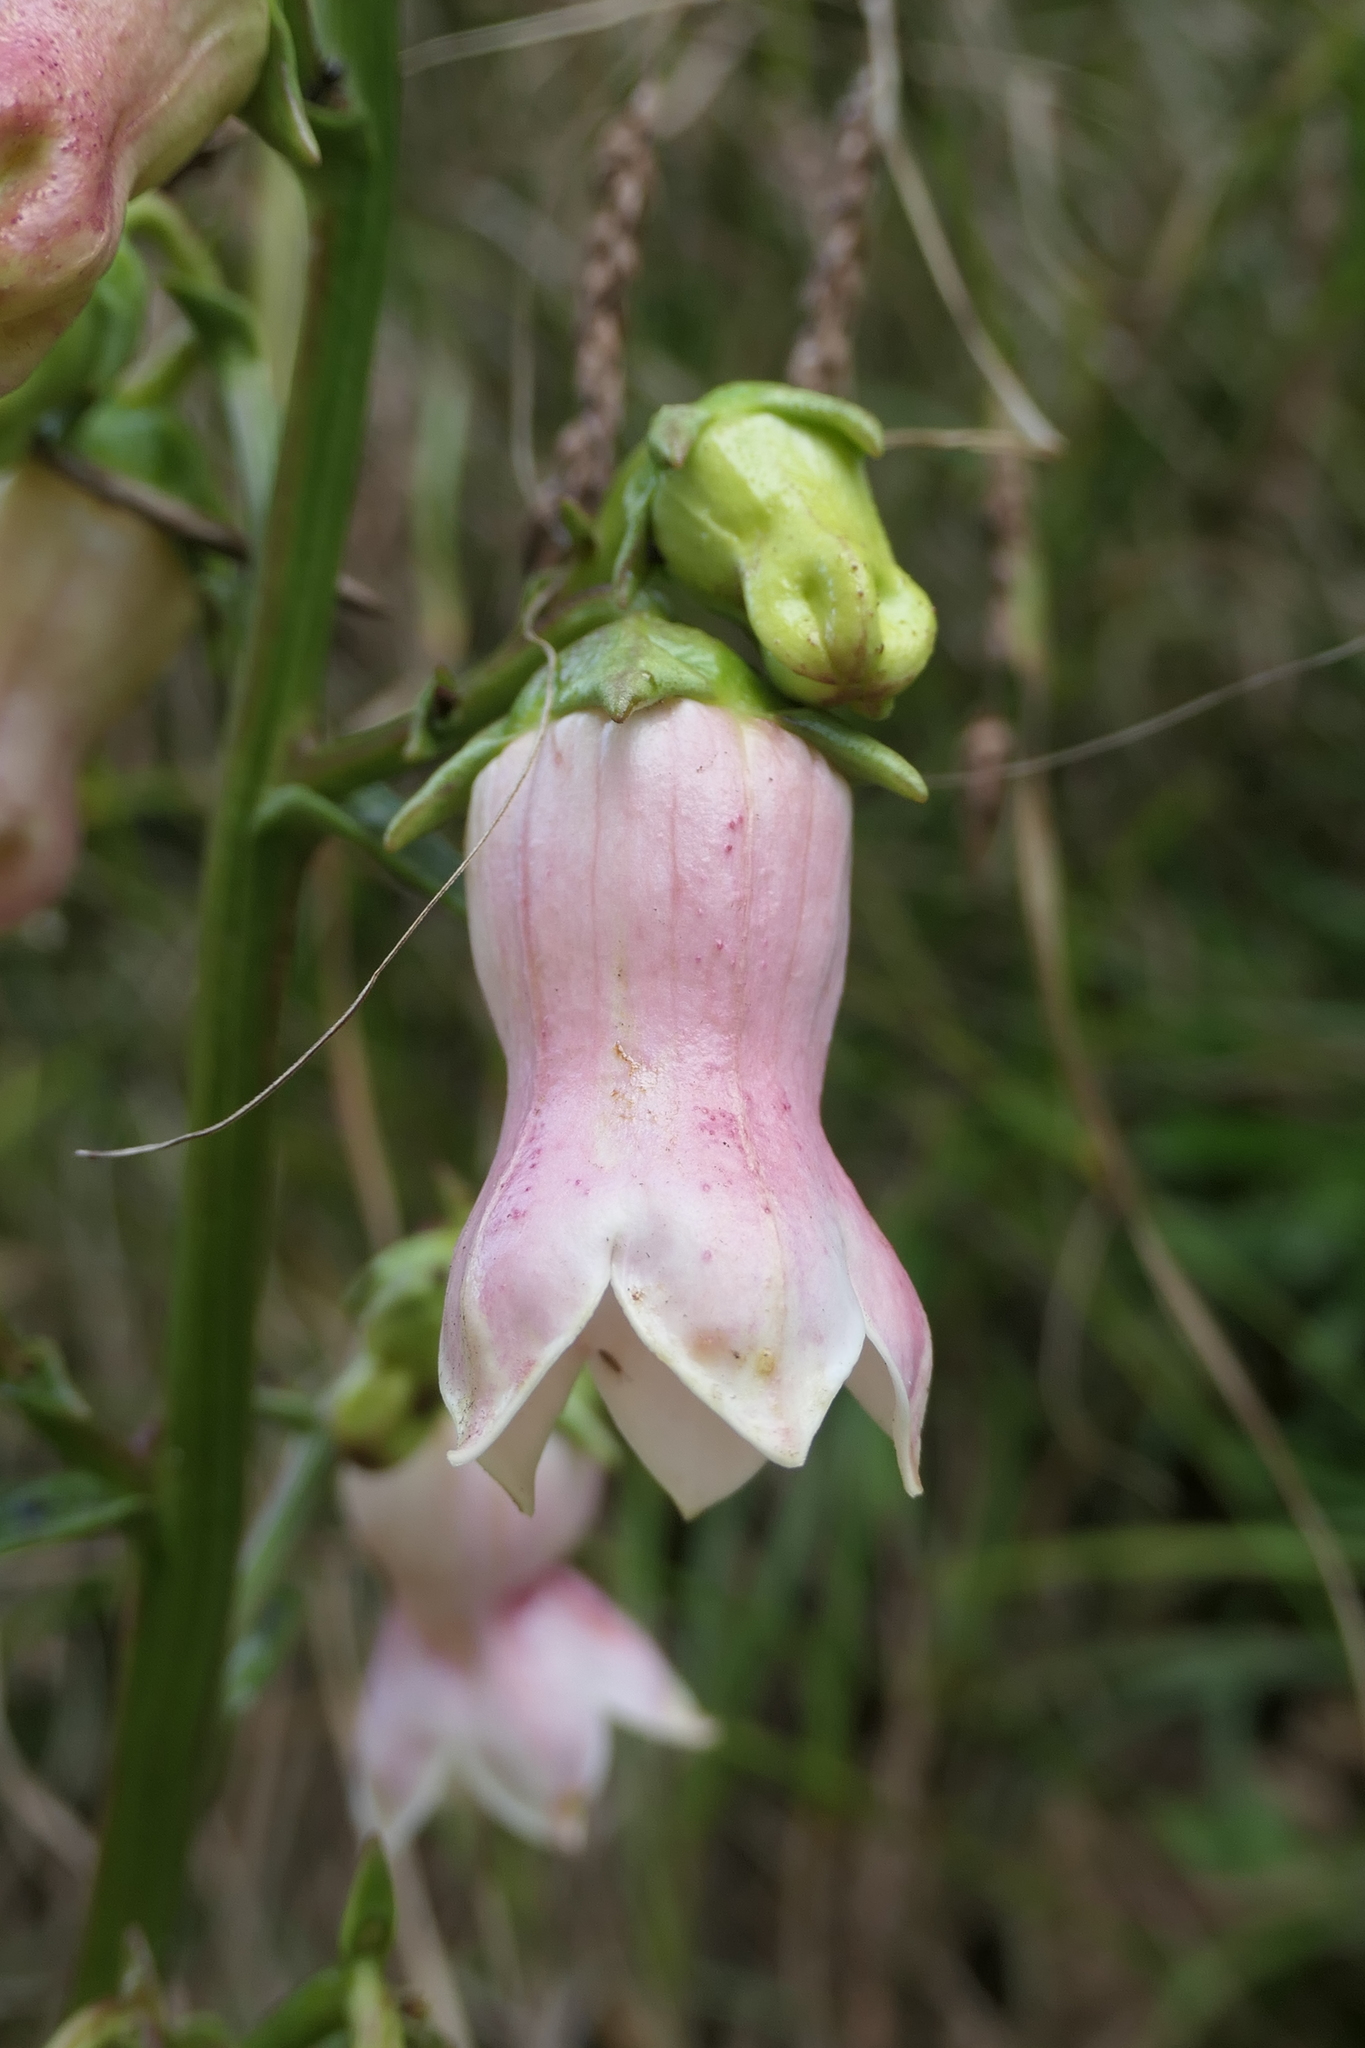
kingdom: Plantae
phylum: Tracheophyta
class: Magnoliopsida
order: Asterales
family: Campanulaceae
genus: Campanula
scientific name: Campanula vidalii
